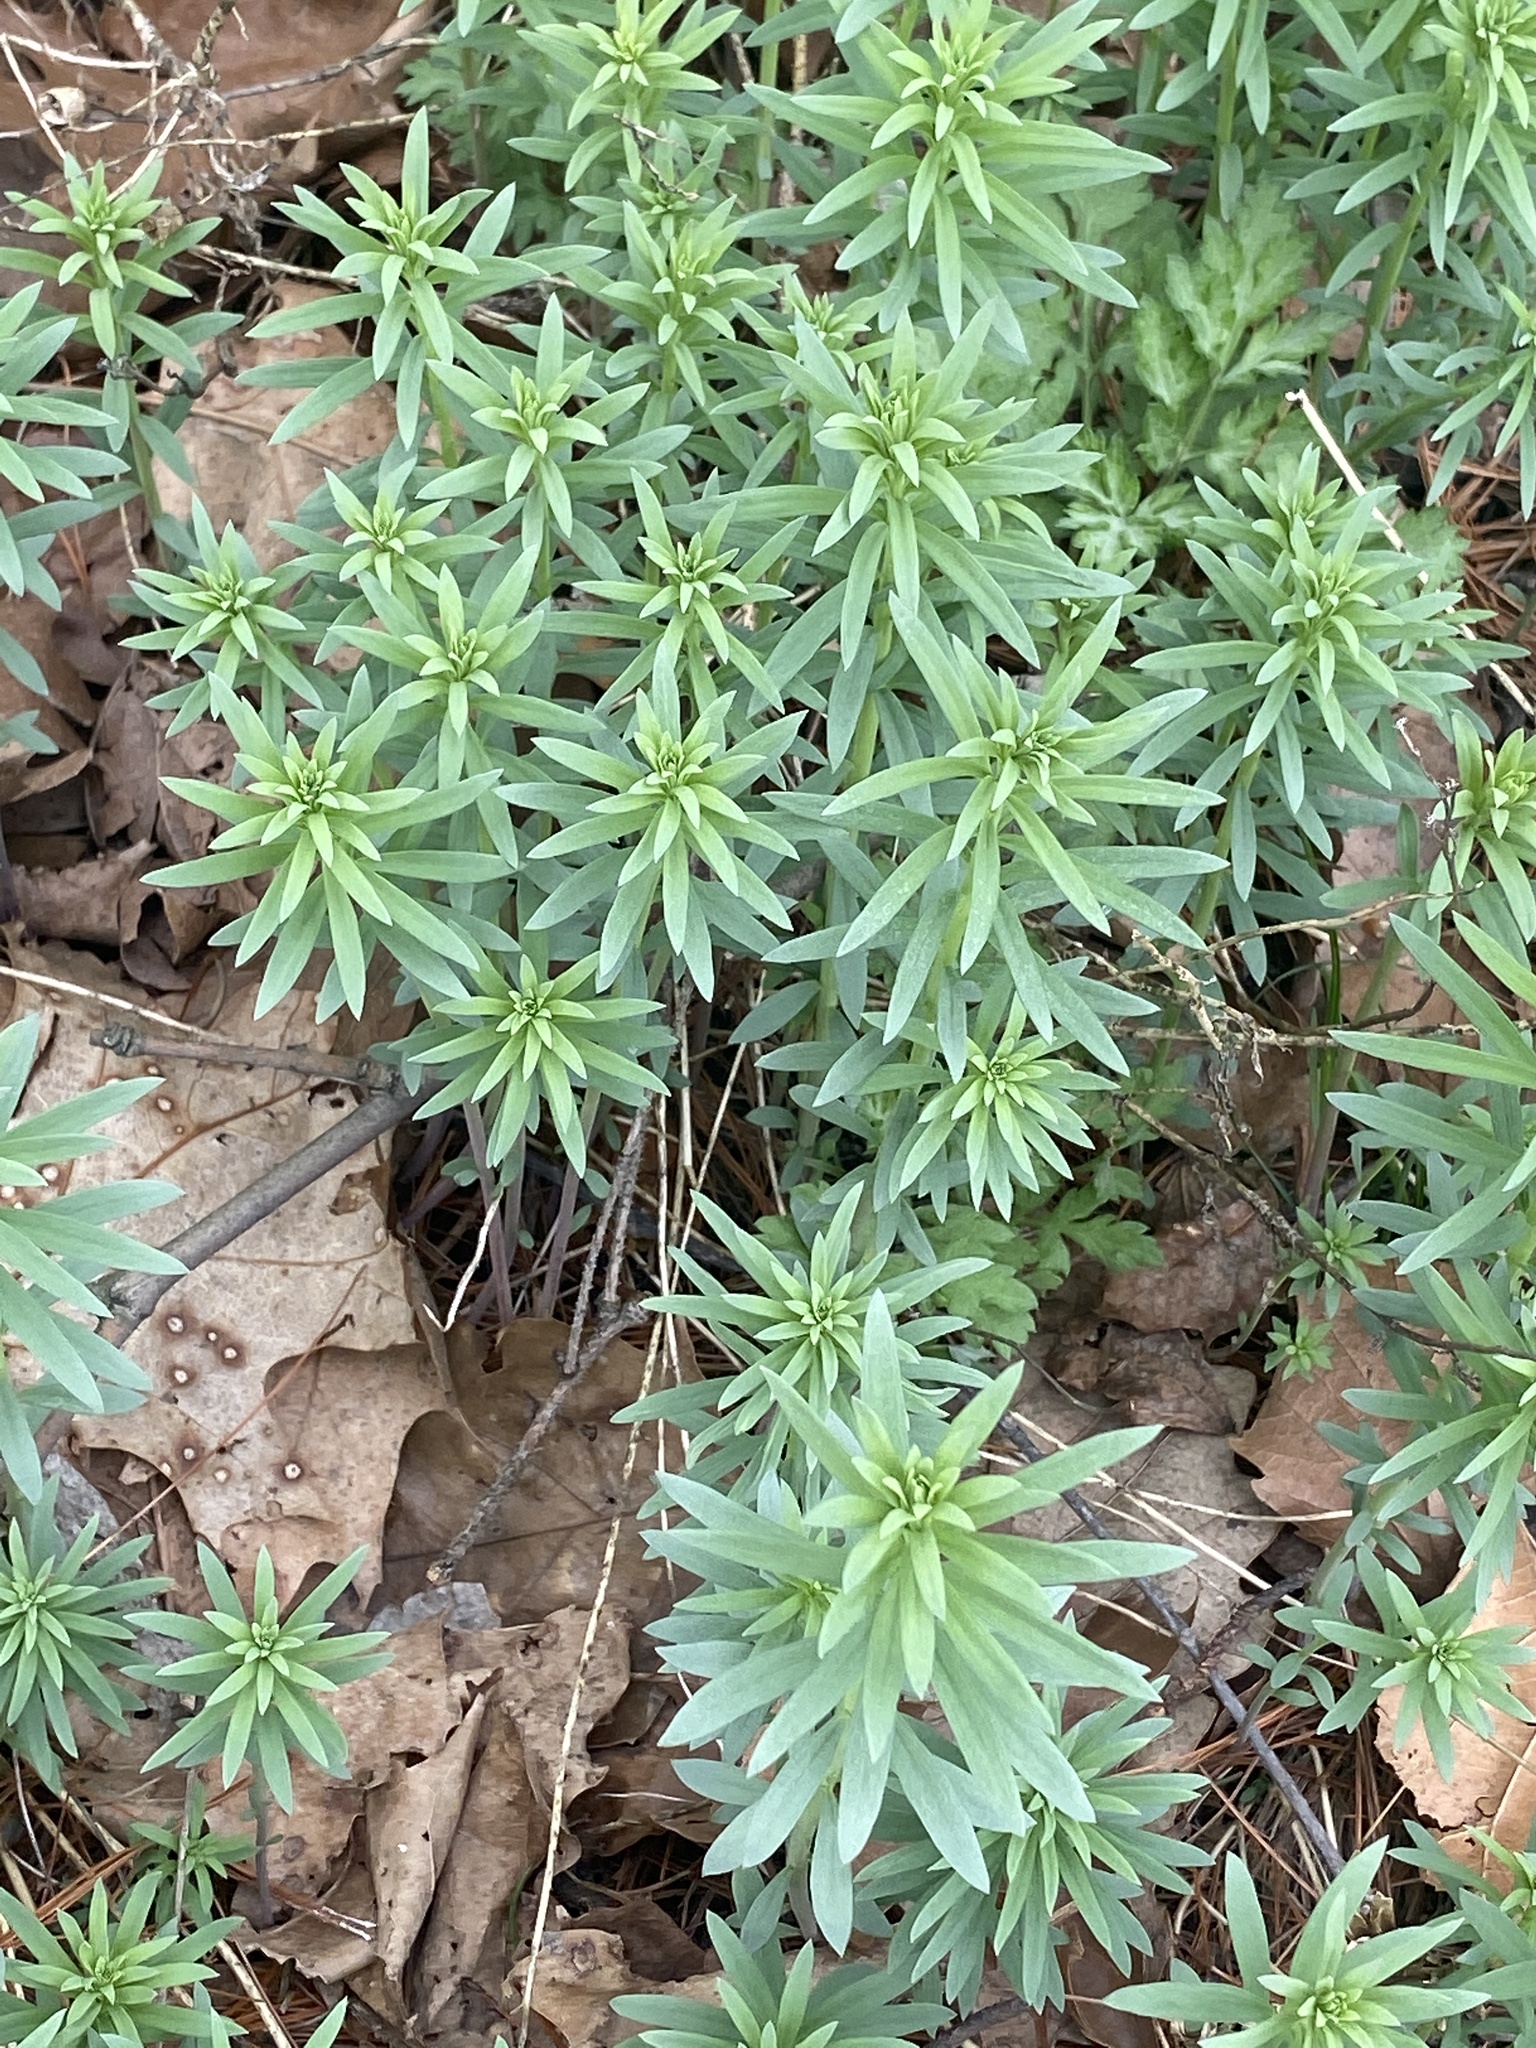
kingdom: Plantae
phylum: Tracheophyta
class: Magnoliopsida
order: Lamiales
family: Plantaginaceae
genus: Linaria
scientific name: Linaria vulgaris
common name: Butter and eggs
